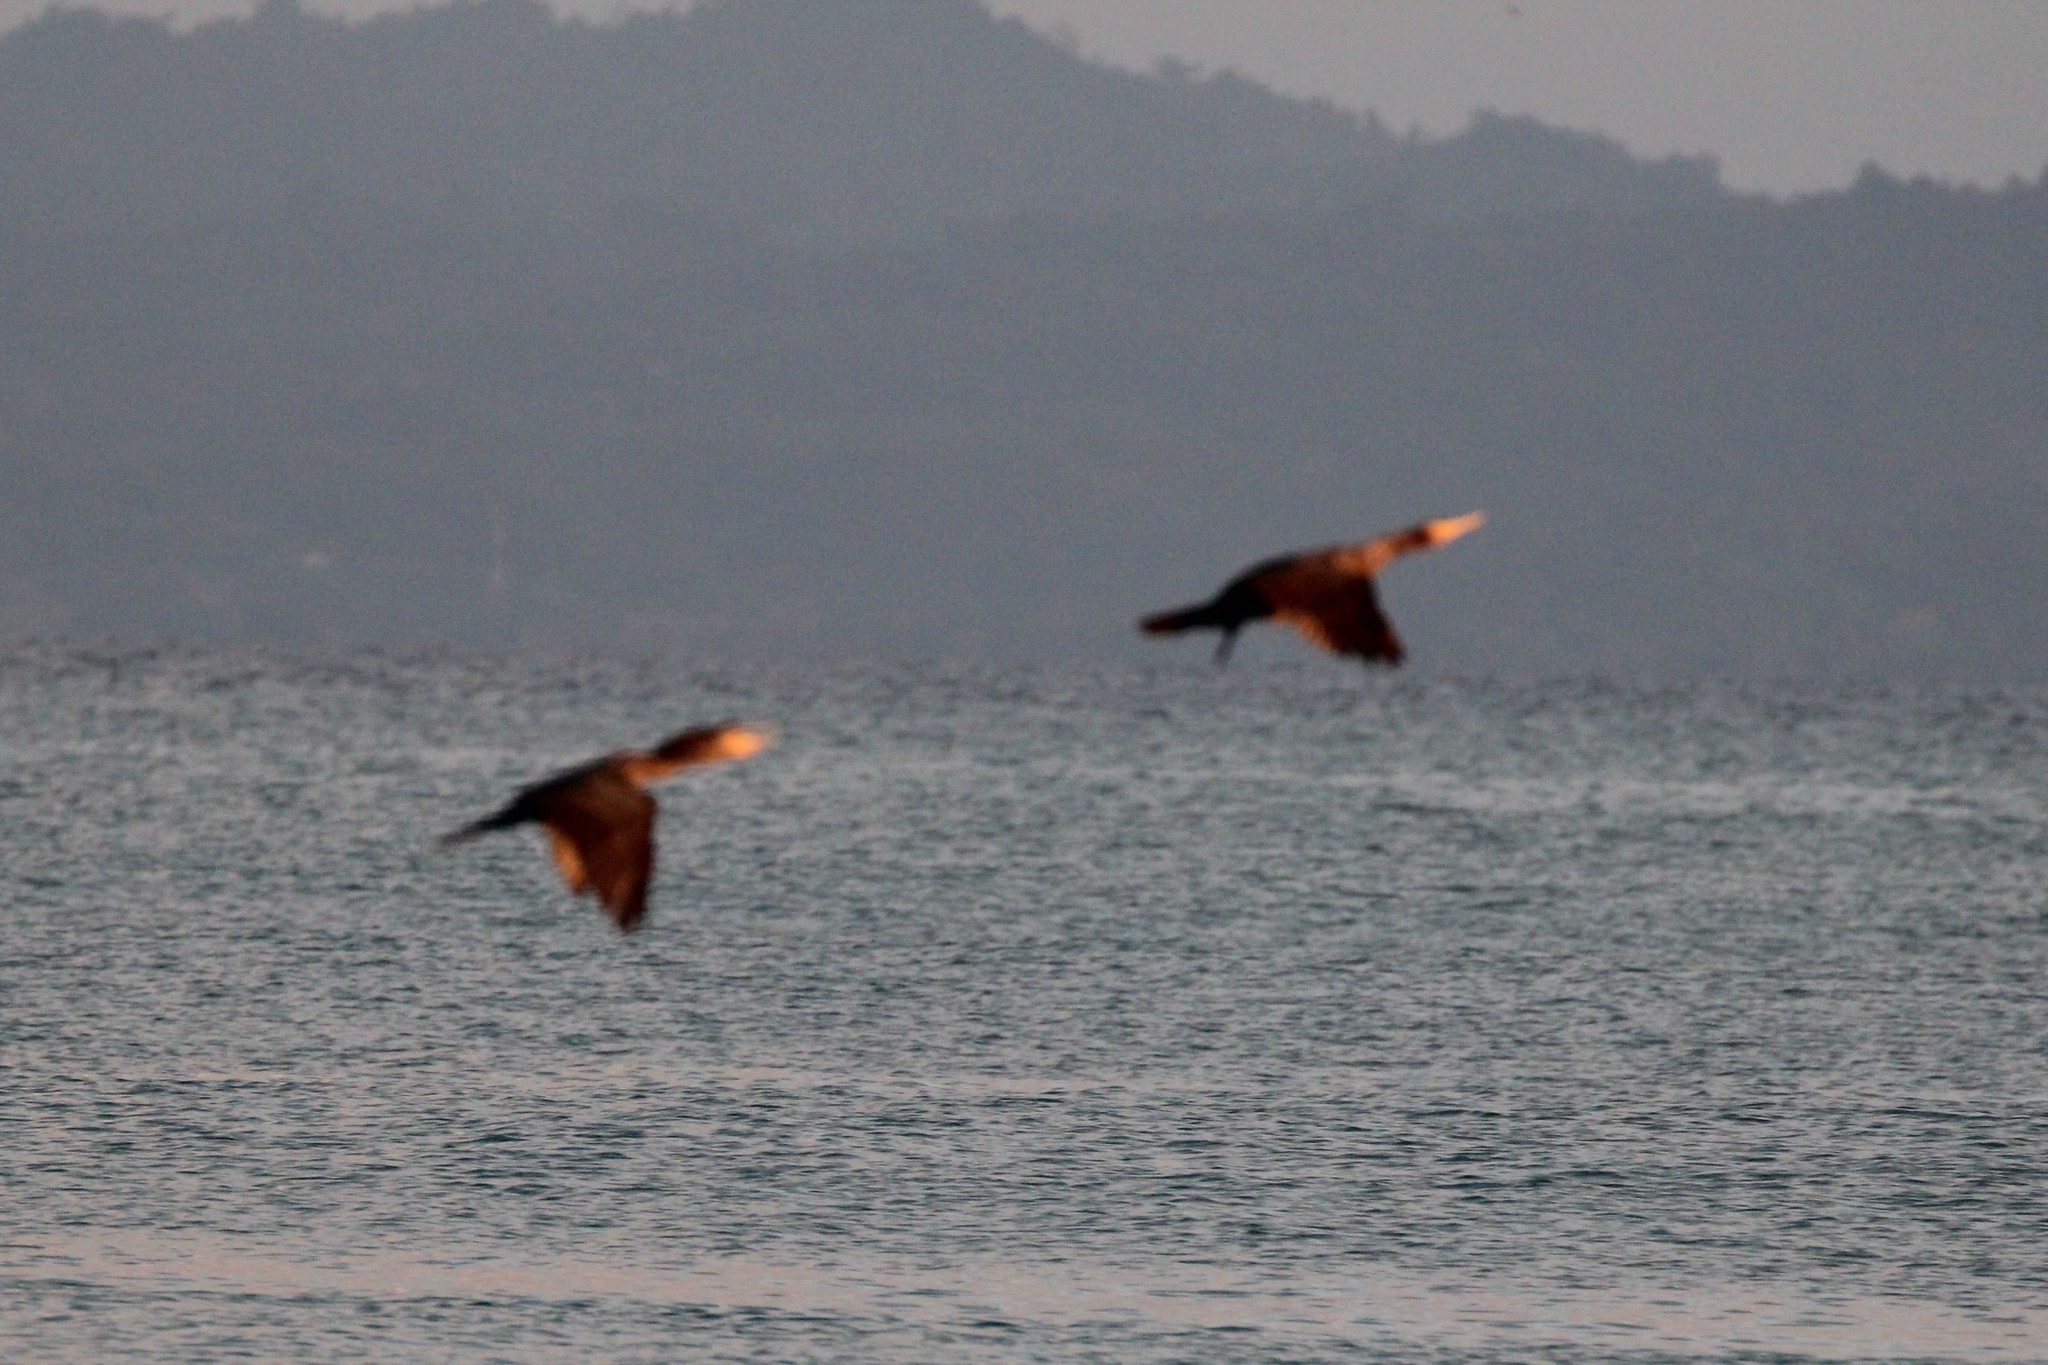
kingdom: Animalia
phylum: Chordata
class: Aves
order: Suliformes
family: Phalacrocoracidae
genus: Phalacrocorax
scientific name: Phalacrocorax brasilianus
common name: Neotropic cormorant
